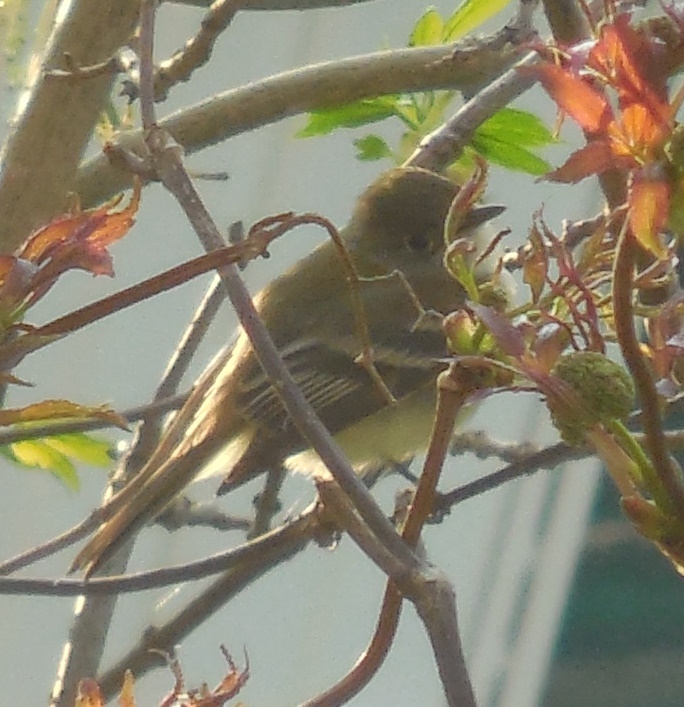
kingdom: Animalia
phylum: Chordata
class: Aves
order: Passeriformes
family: Tyrannidae
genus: Empidonax
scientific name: Empidonax minimus
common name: Least flycatcher
